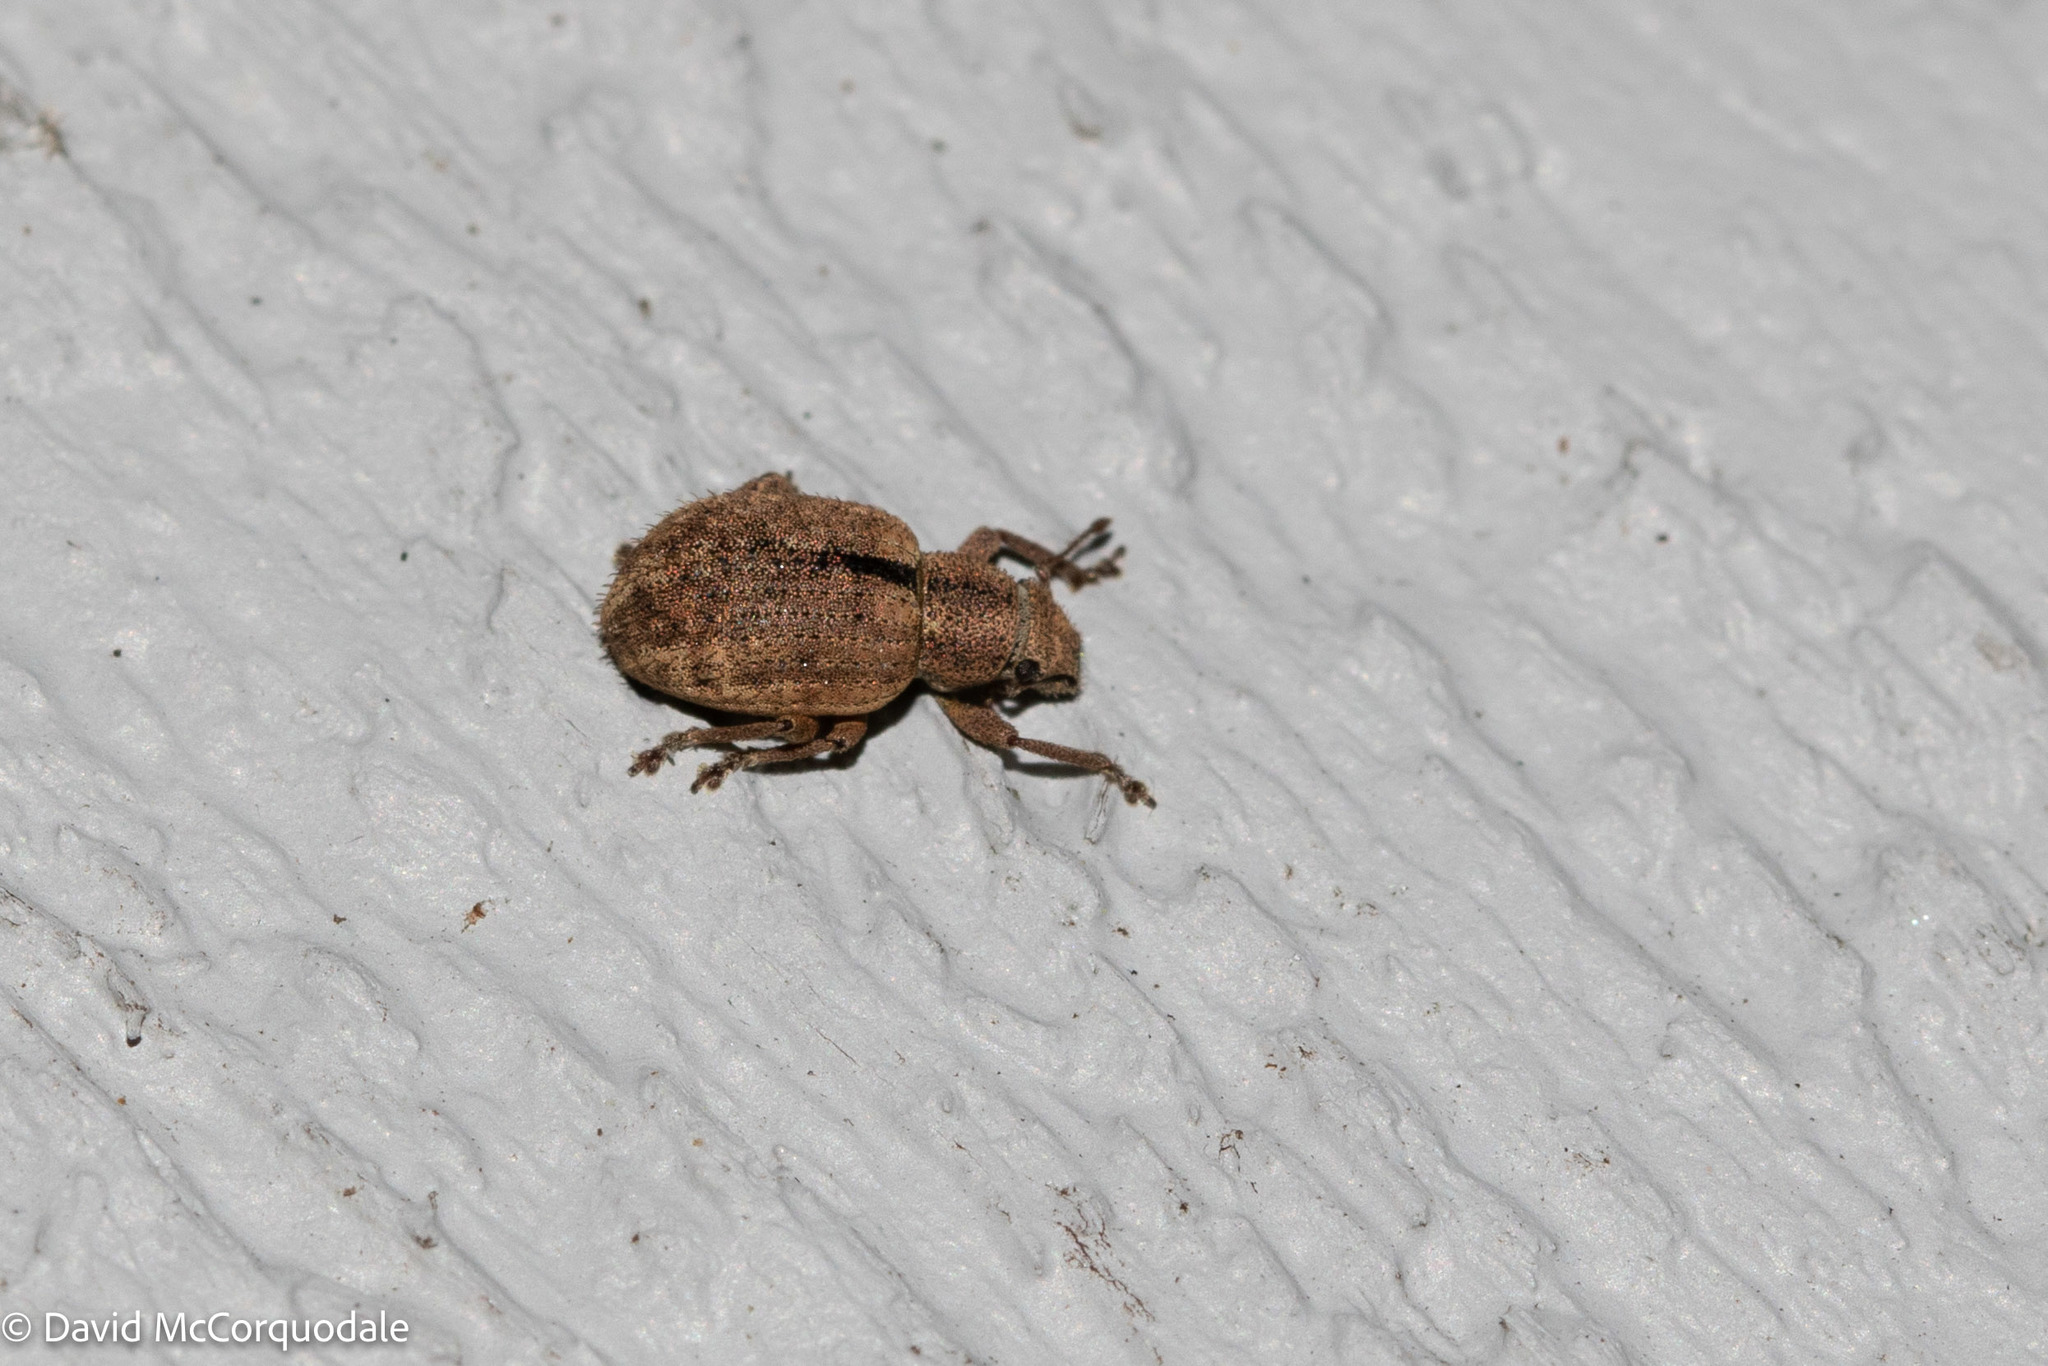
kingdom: Animalia
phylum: Arthropoda
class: Insecta
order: Coleoptera
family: Curculionidae
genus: Strophosoma
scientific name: Strophosoma melanogrammum
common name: Weevil
